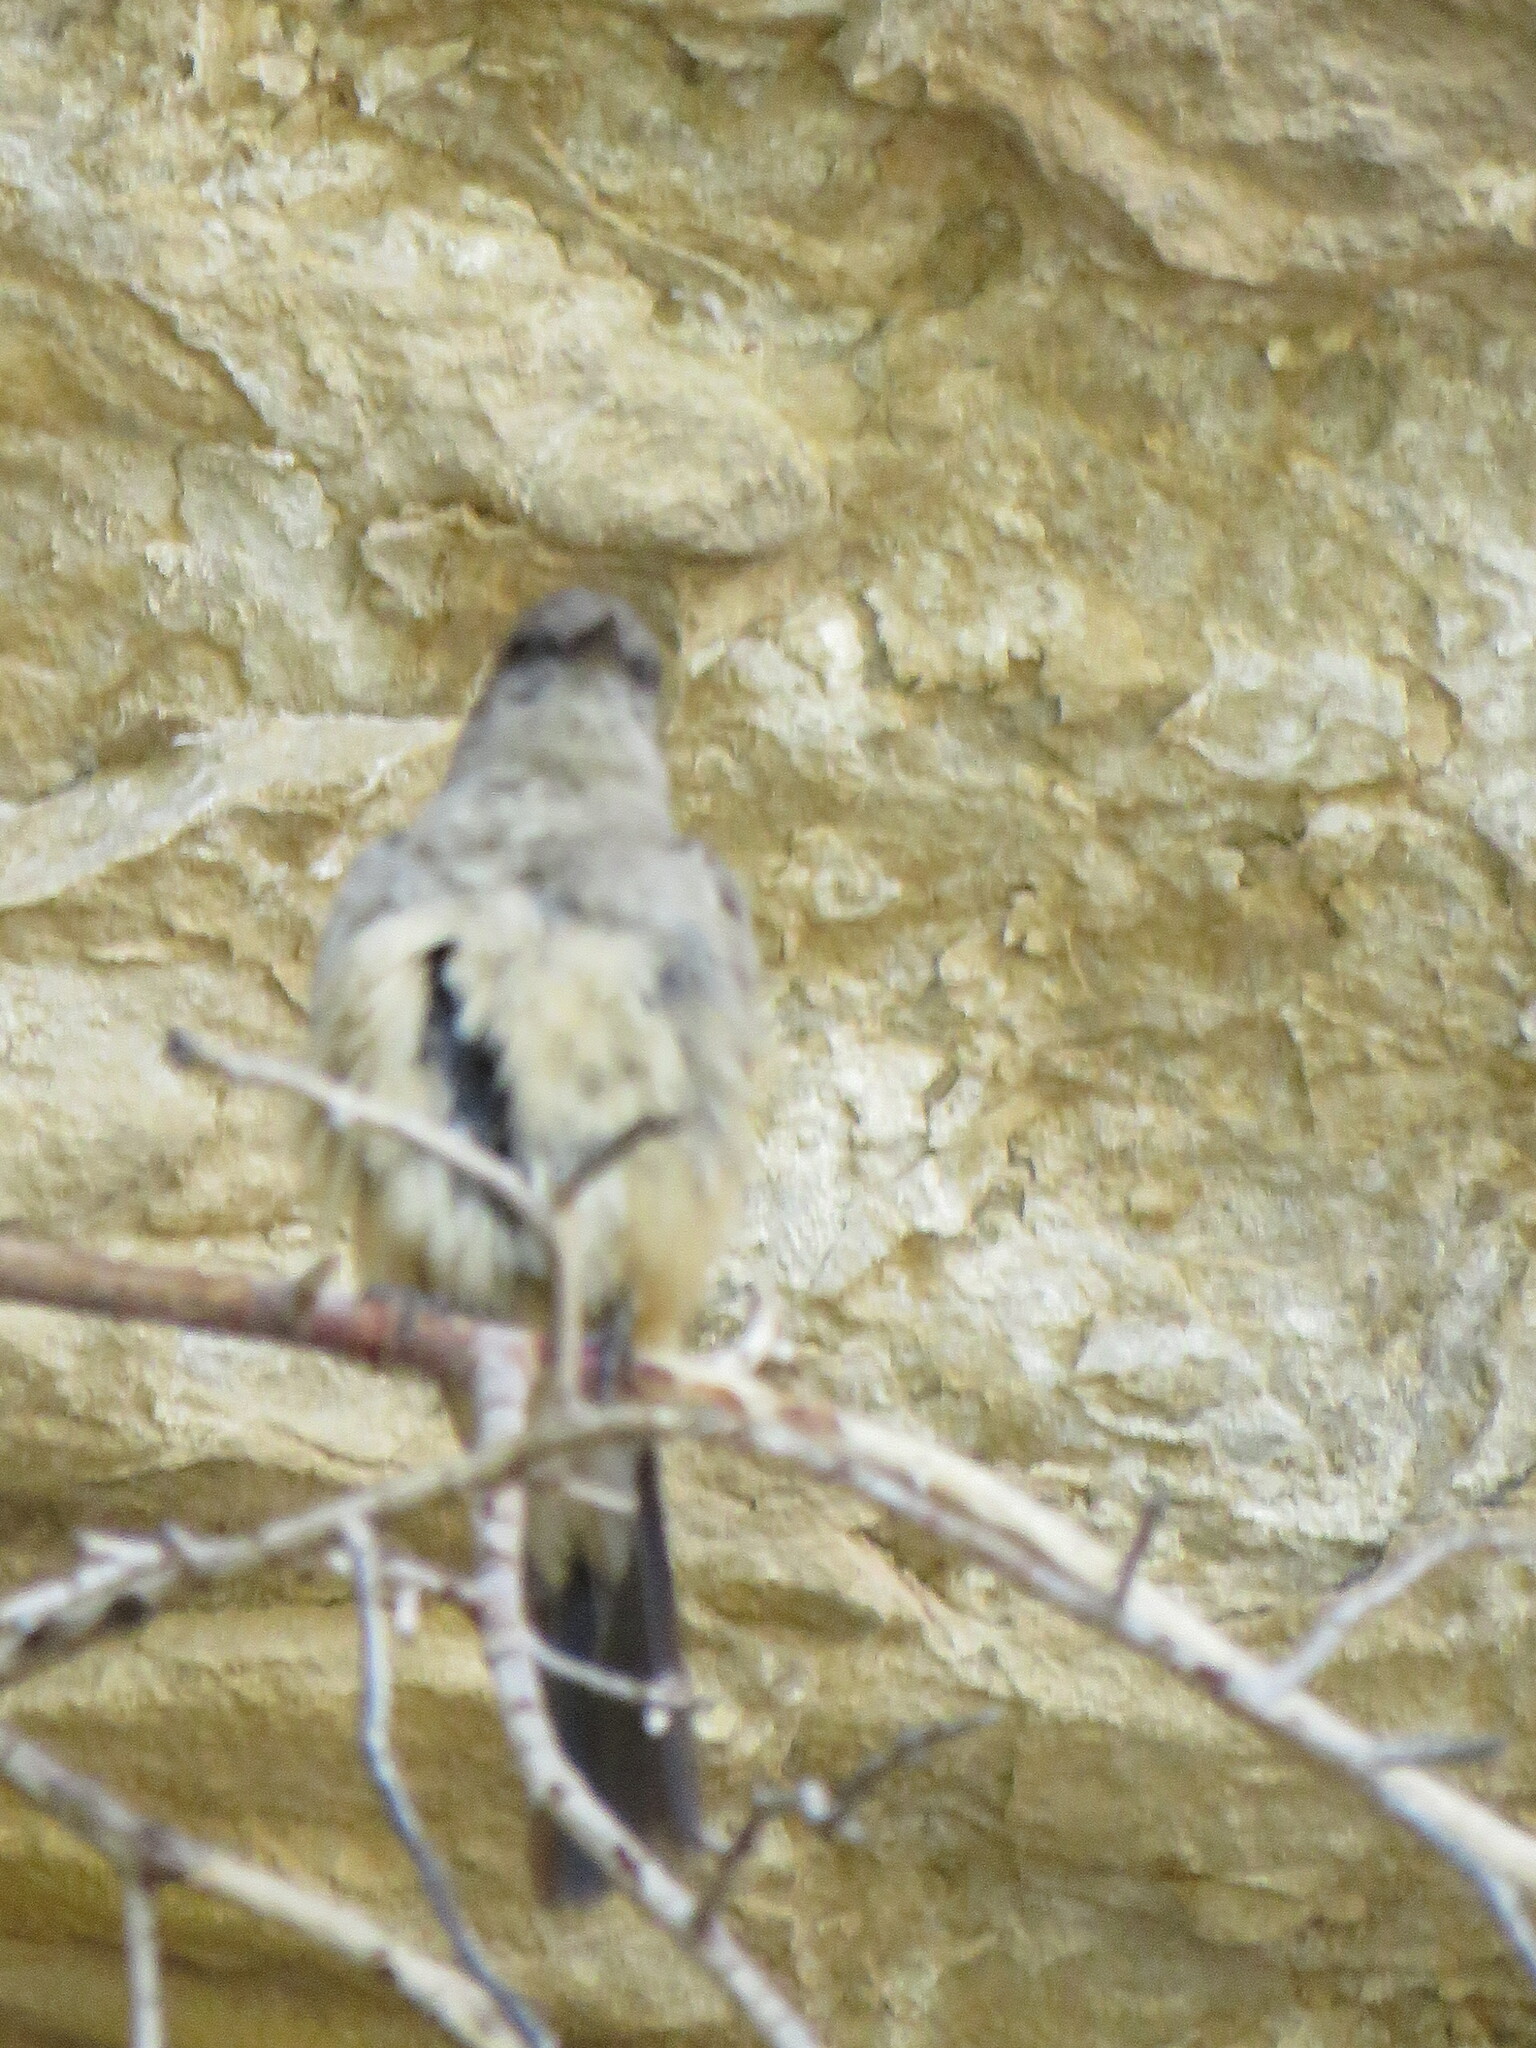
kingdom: Animalia
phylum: Chordata
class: Aves
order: Passeriformes
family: Tyrannidae
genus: Sayornis
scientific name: Sayornis saya
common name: Say's phoebe
